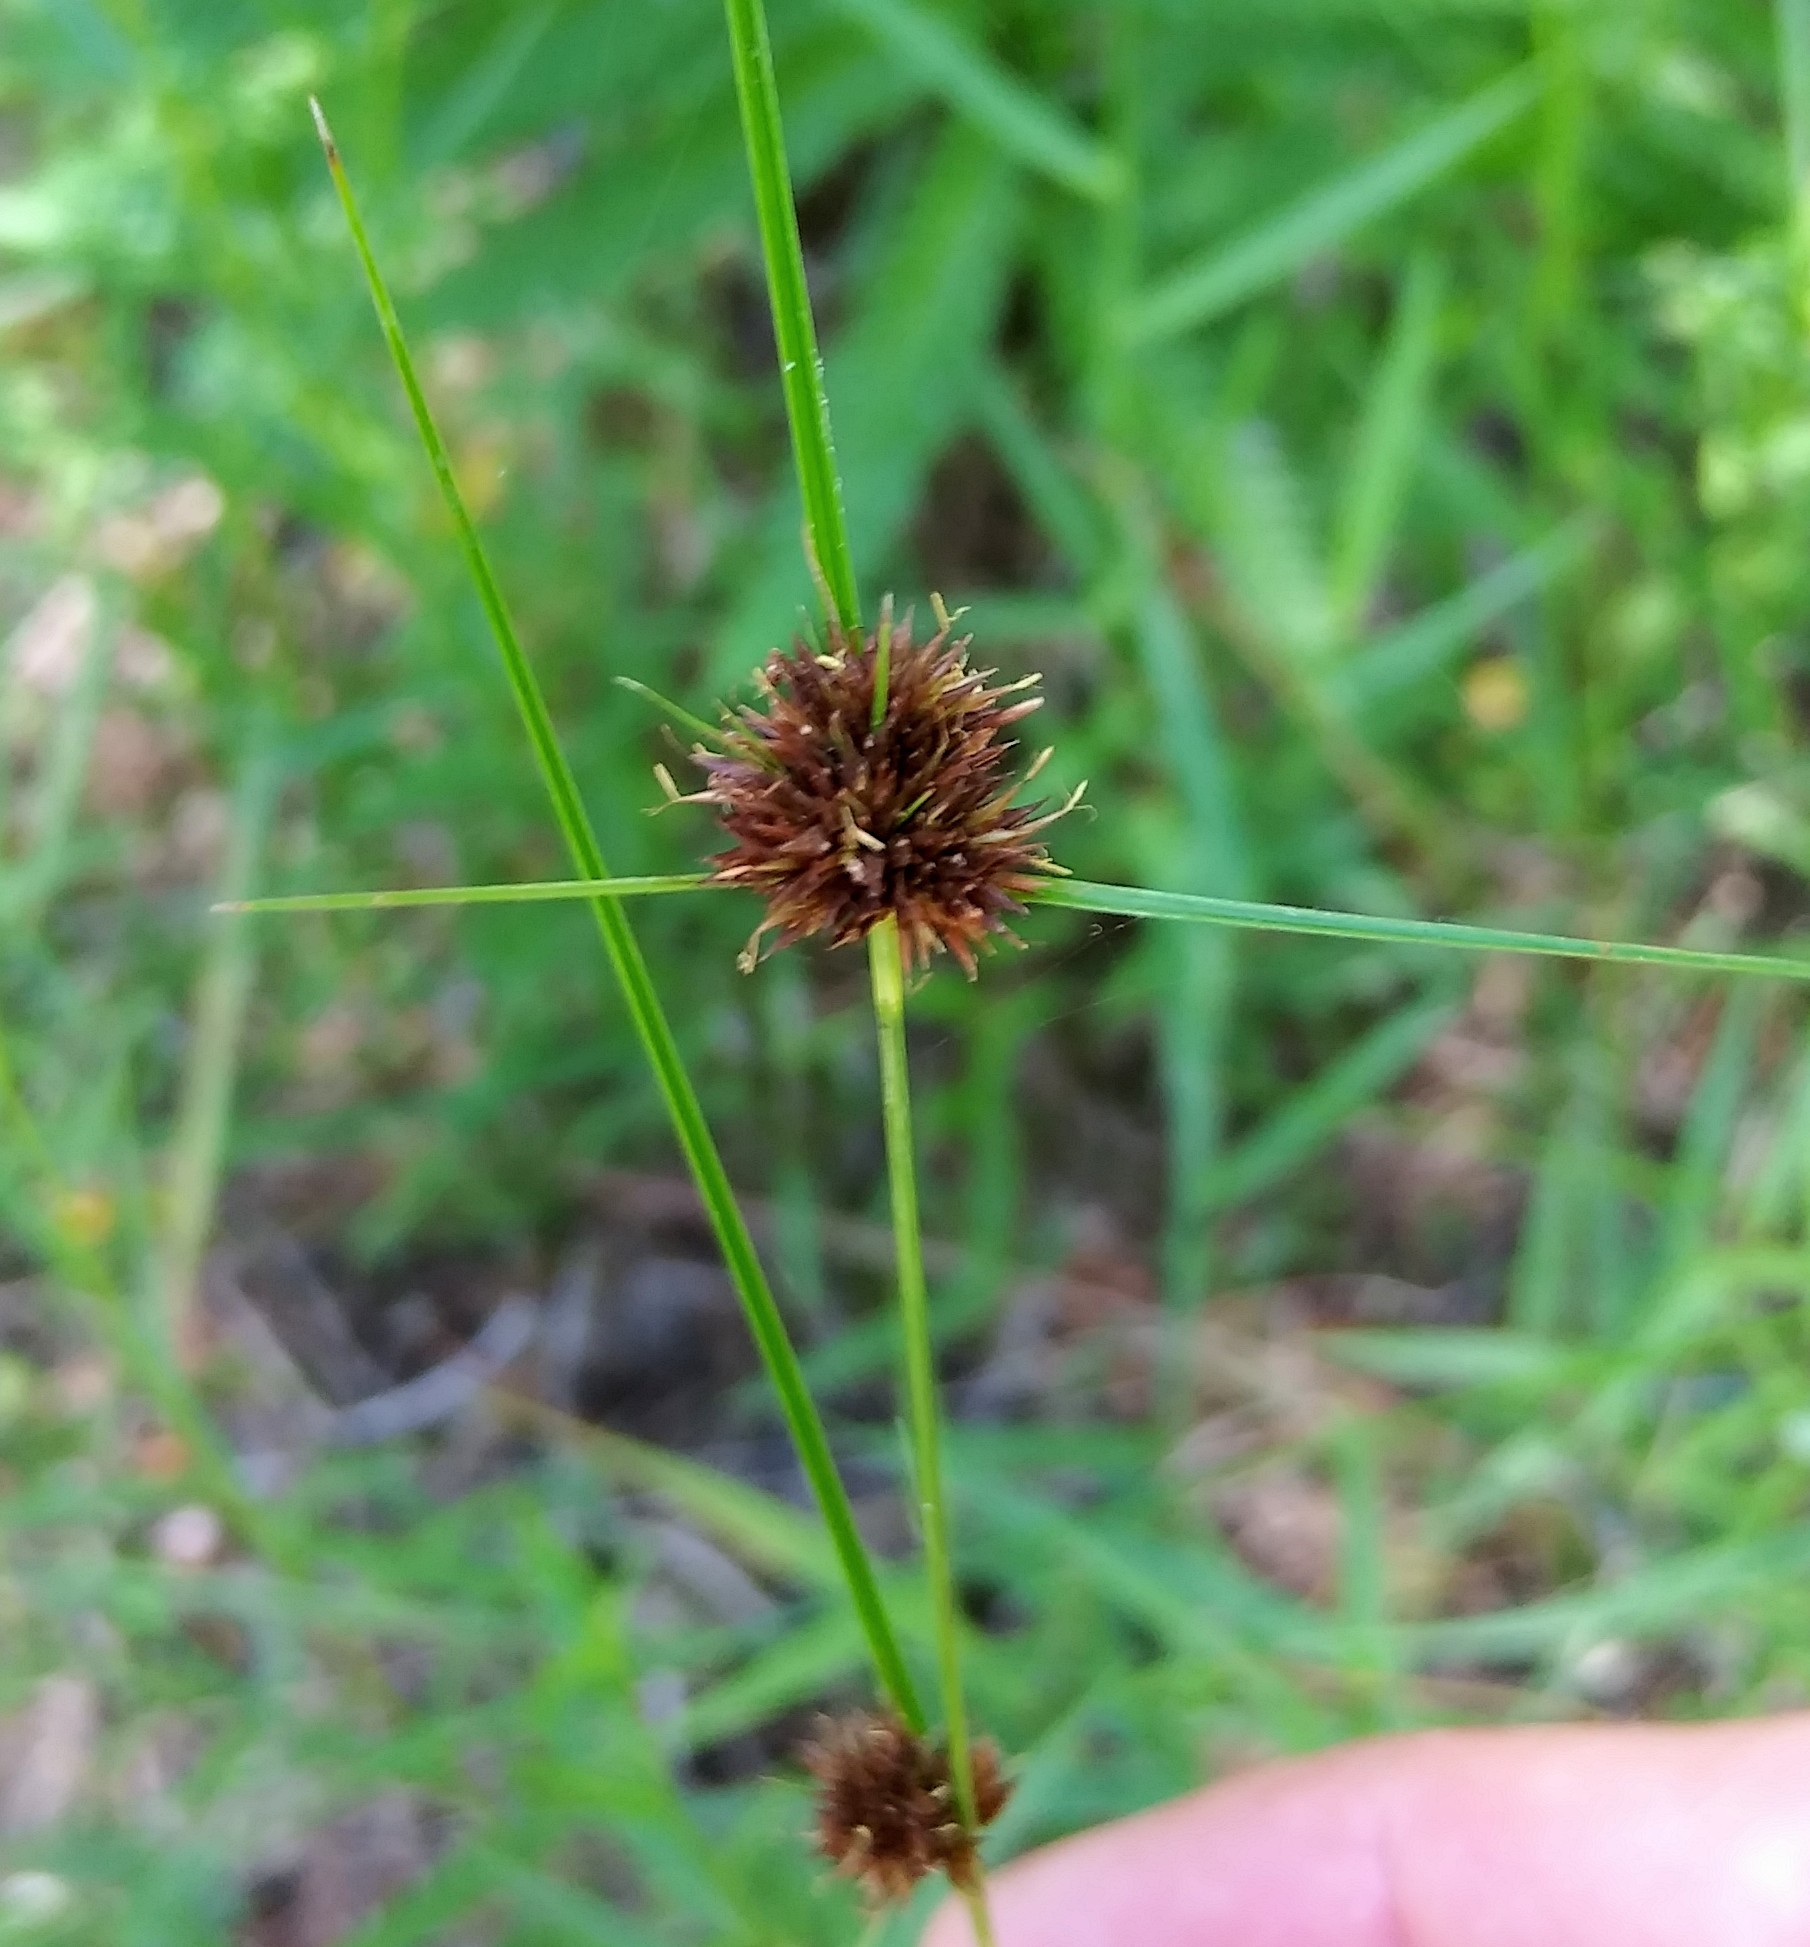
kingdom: Plantae
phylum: Tracheophyta
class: Liliopsida
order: Poales
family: Cyperaceae
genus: Rhynchospora
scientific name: Rhynchospora cephalantha
